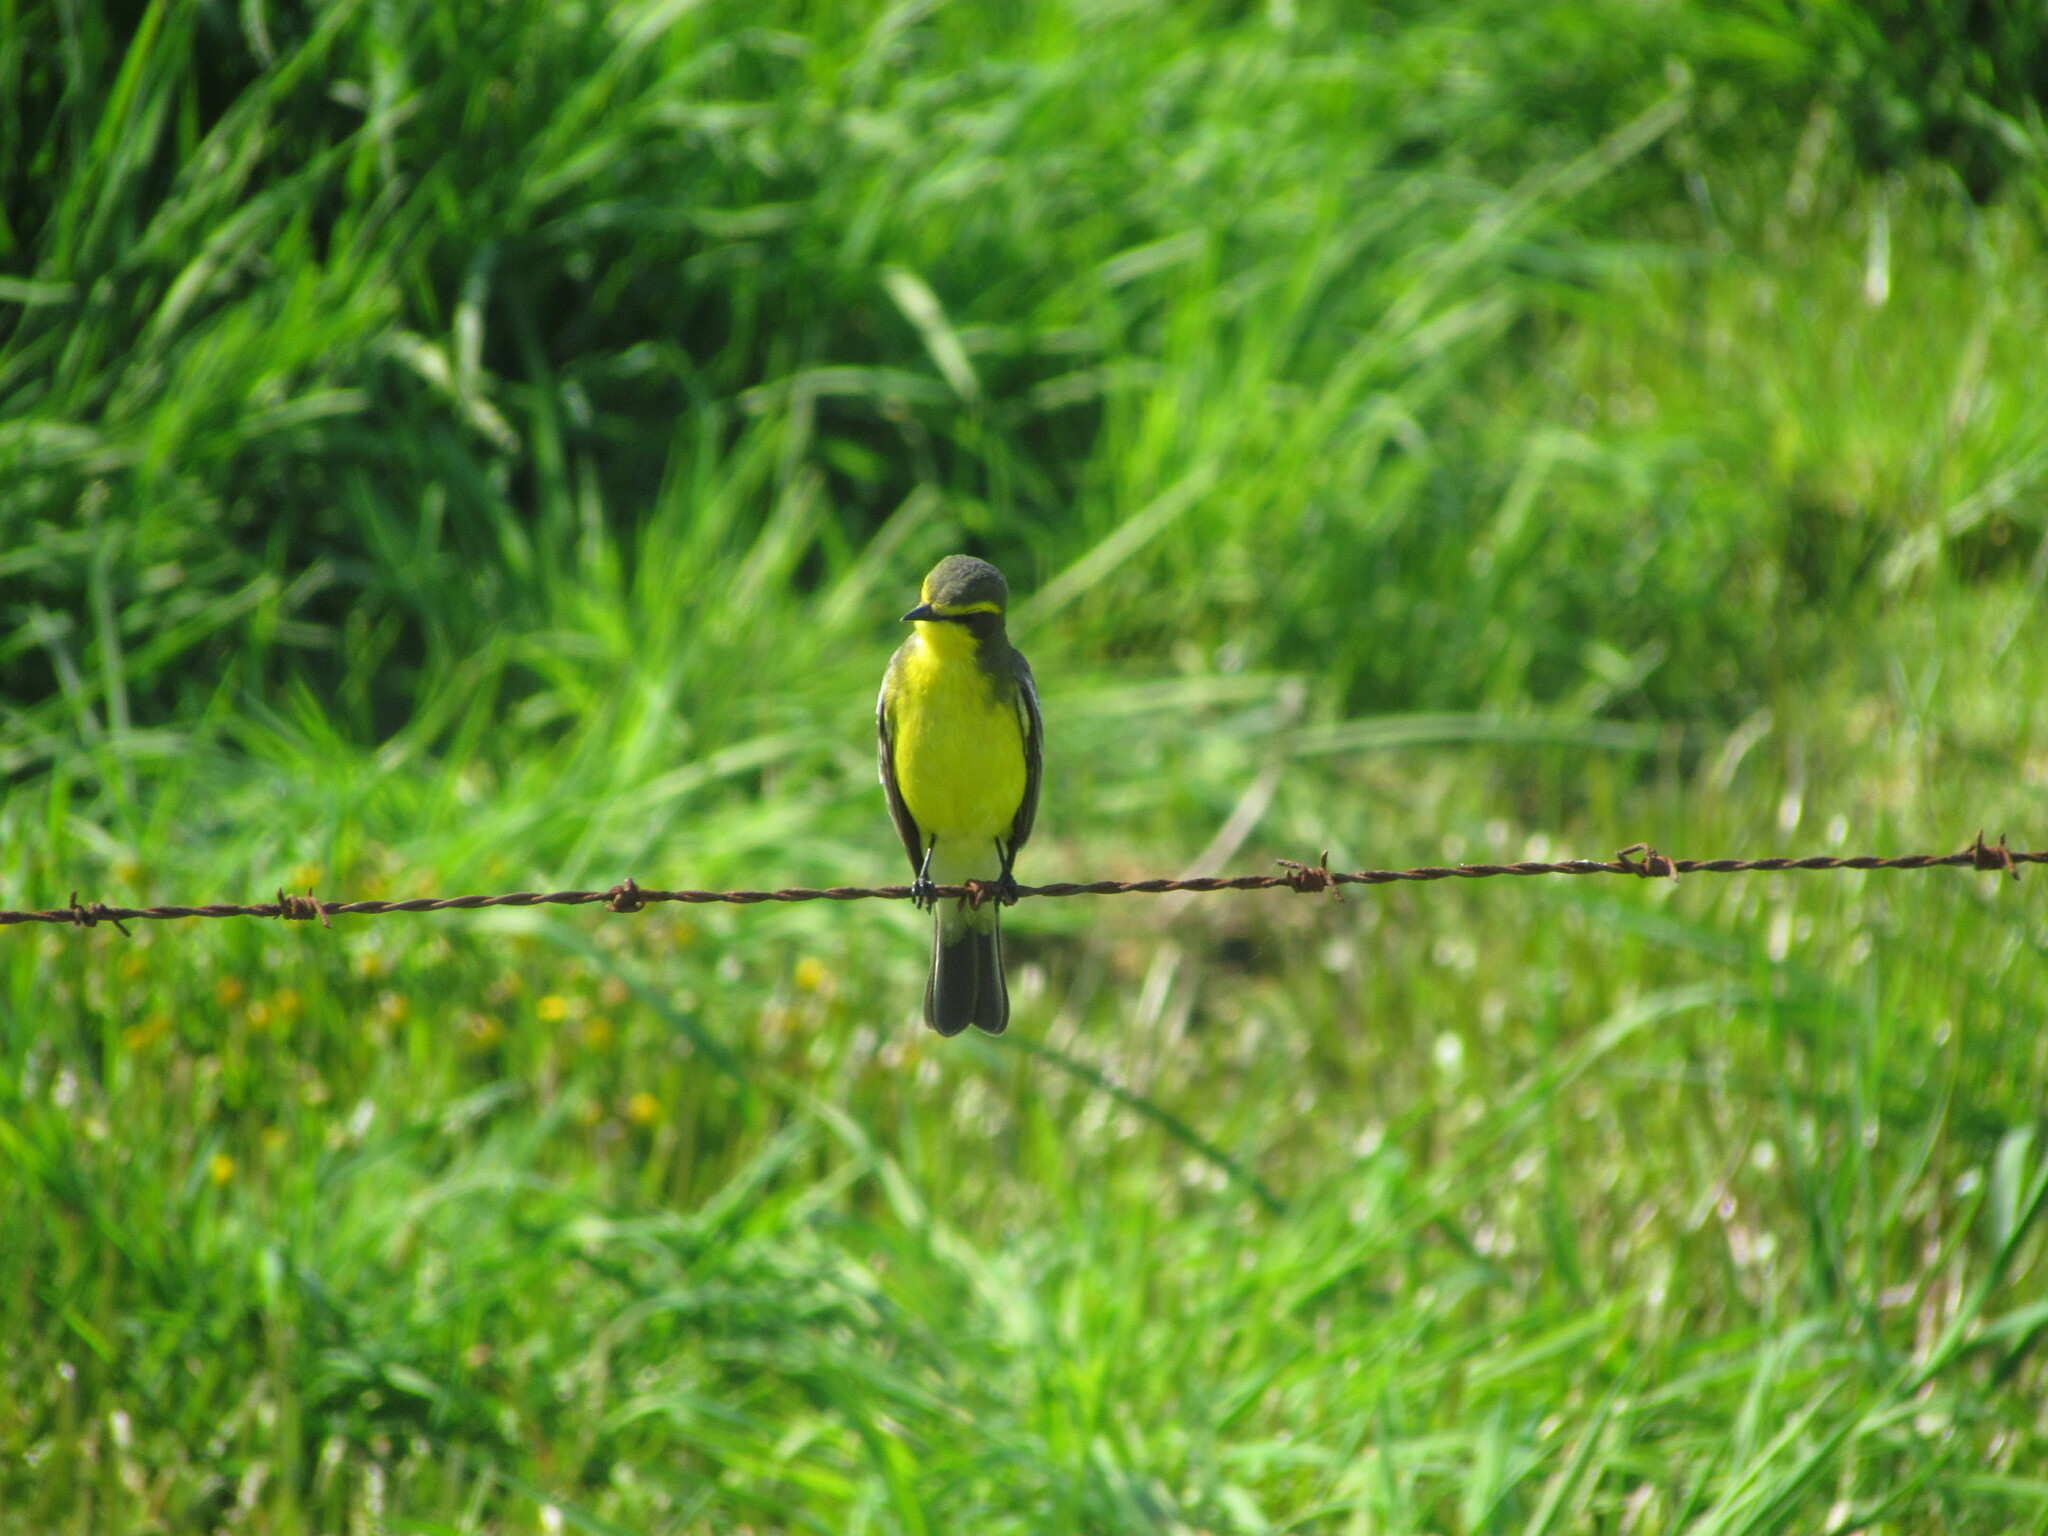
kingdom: Animalia
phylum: Chordata
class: Aves
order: Passeriformes
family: Tyrannidae
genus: Satrapa
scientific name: Satrapa icterophrys
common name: Yellow-browed tyrant
